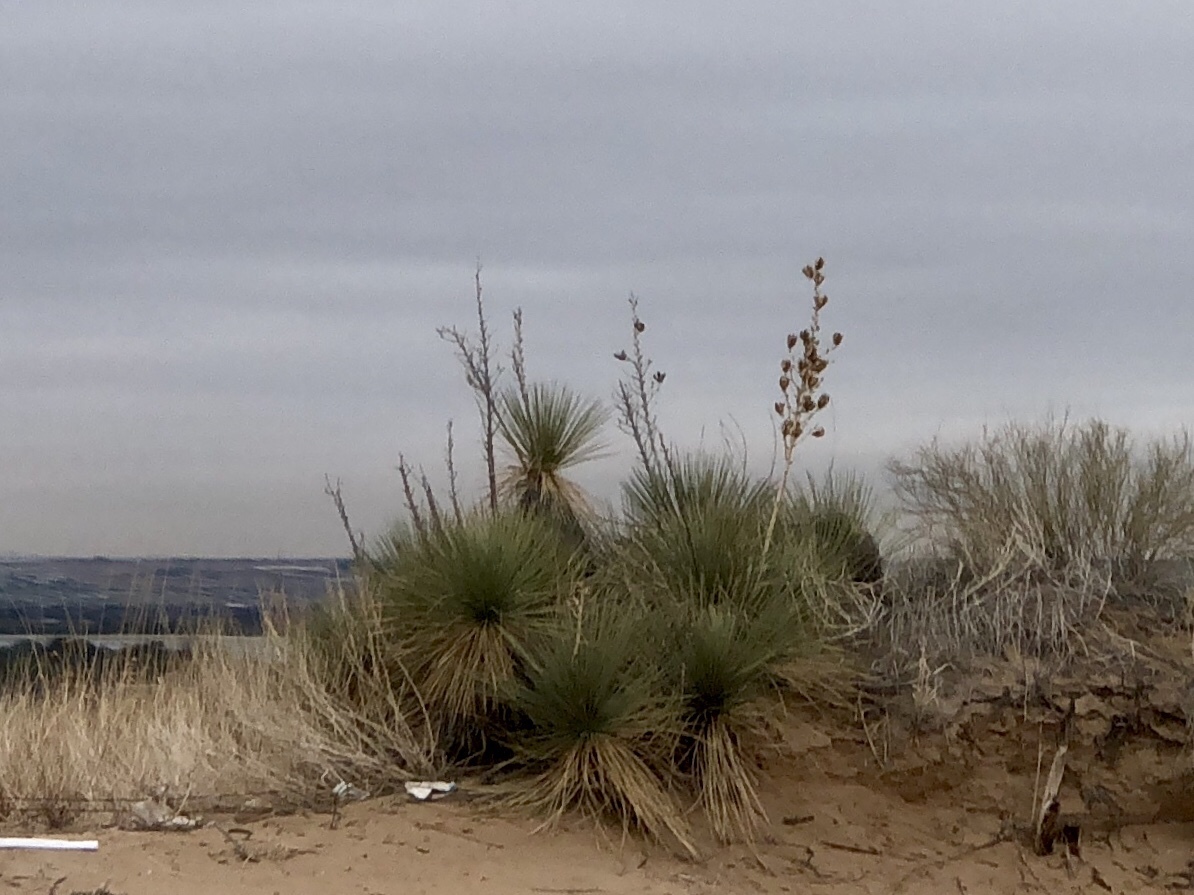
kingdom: Plantae
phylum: Tracheophyta
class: Liliopsida
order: Asparagales
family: Asparagaceae
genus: Yucca
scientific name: Yucca elata
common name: Palmella
